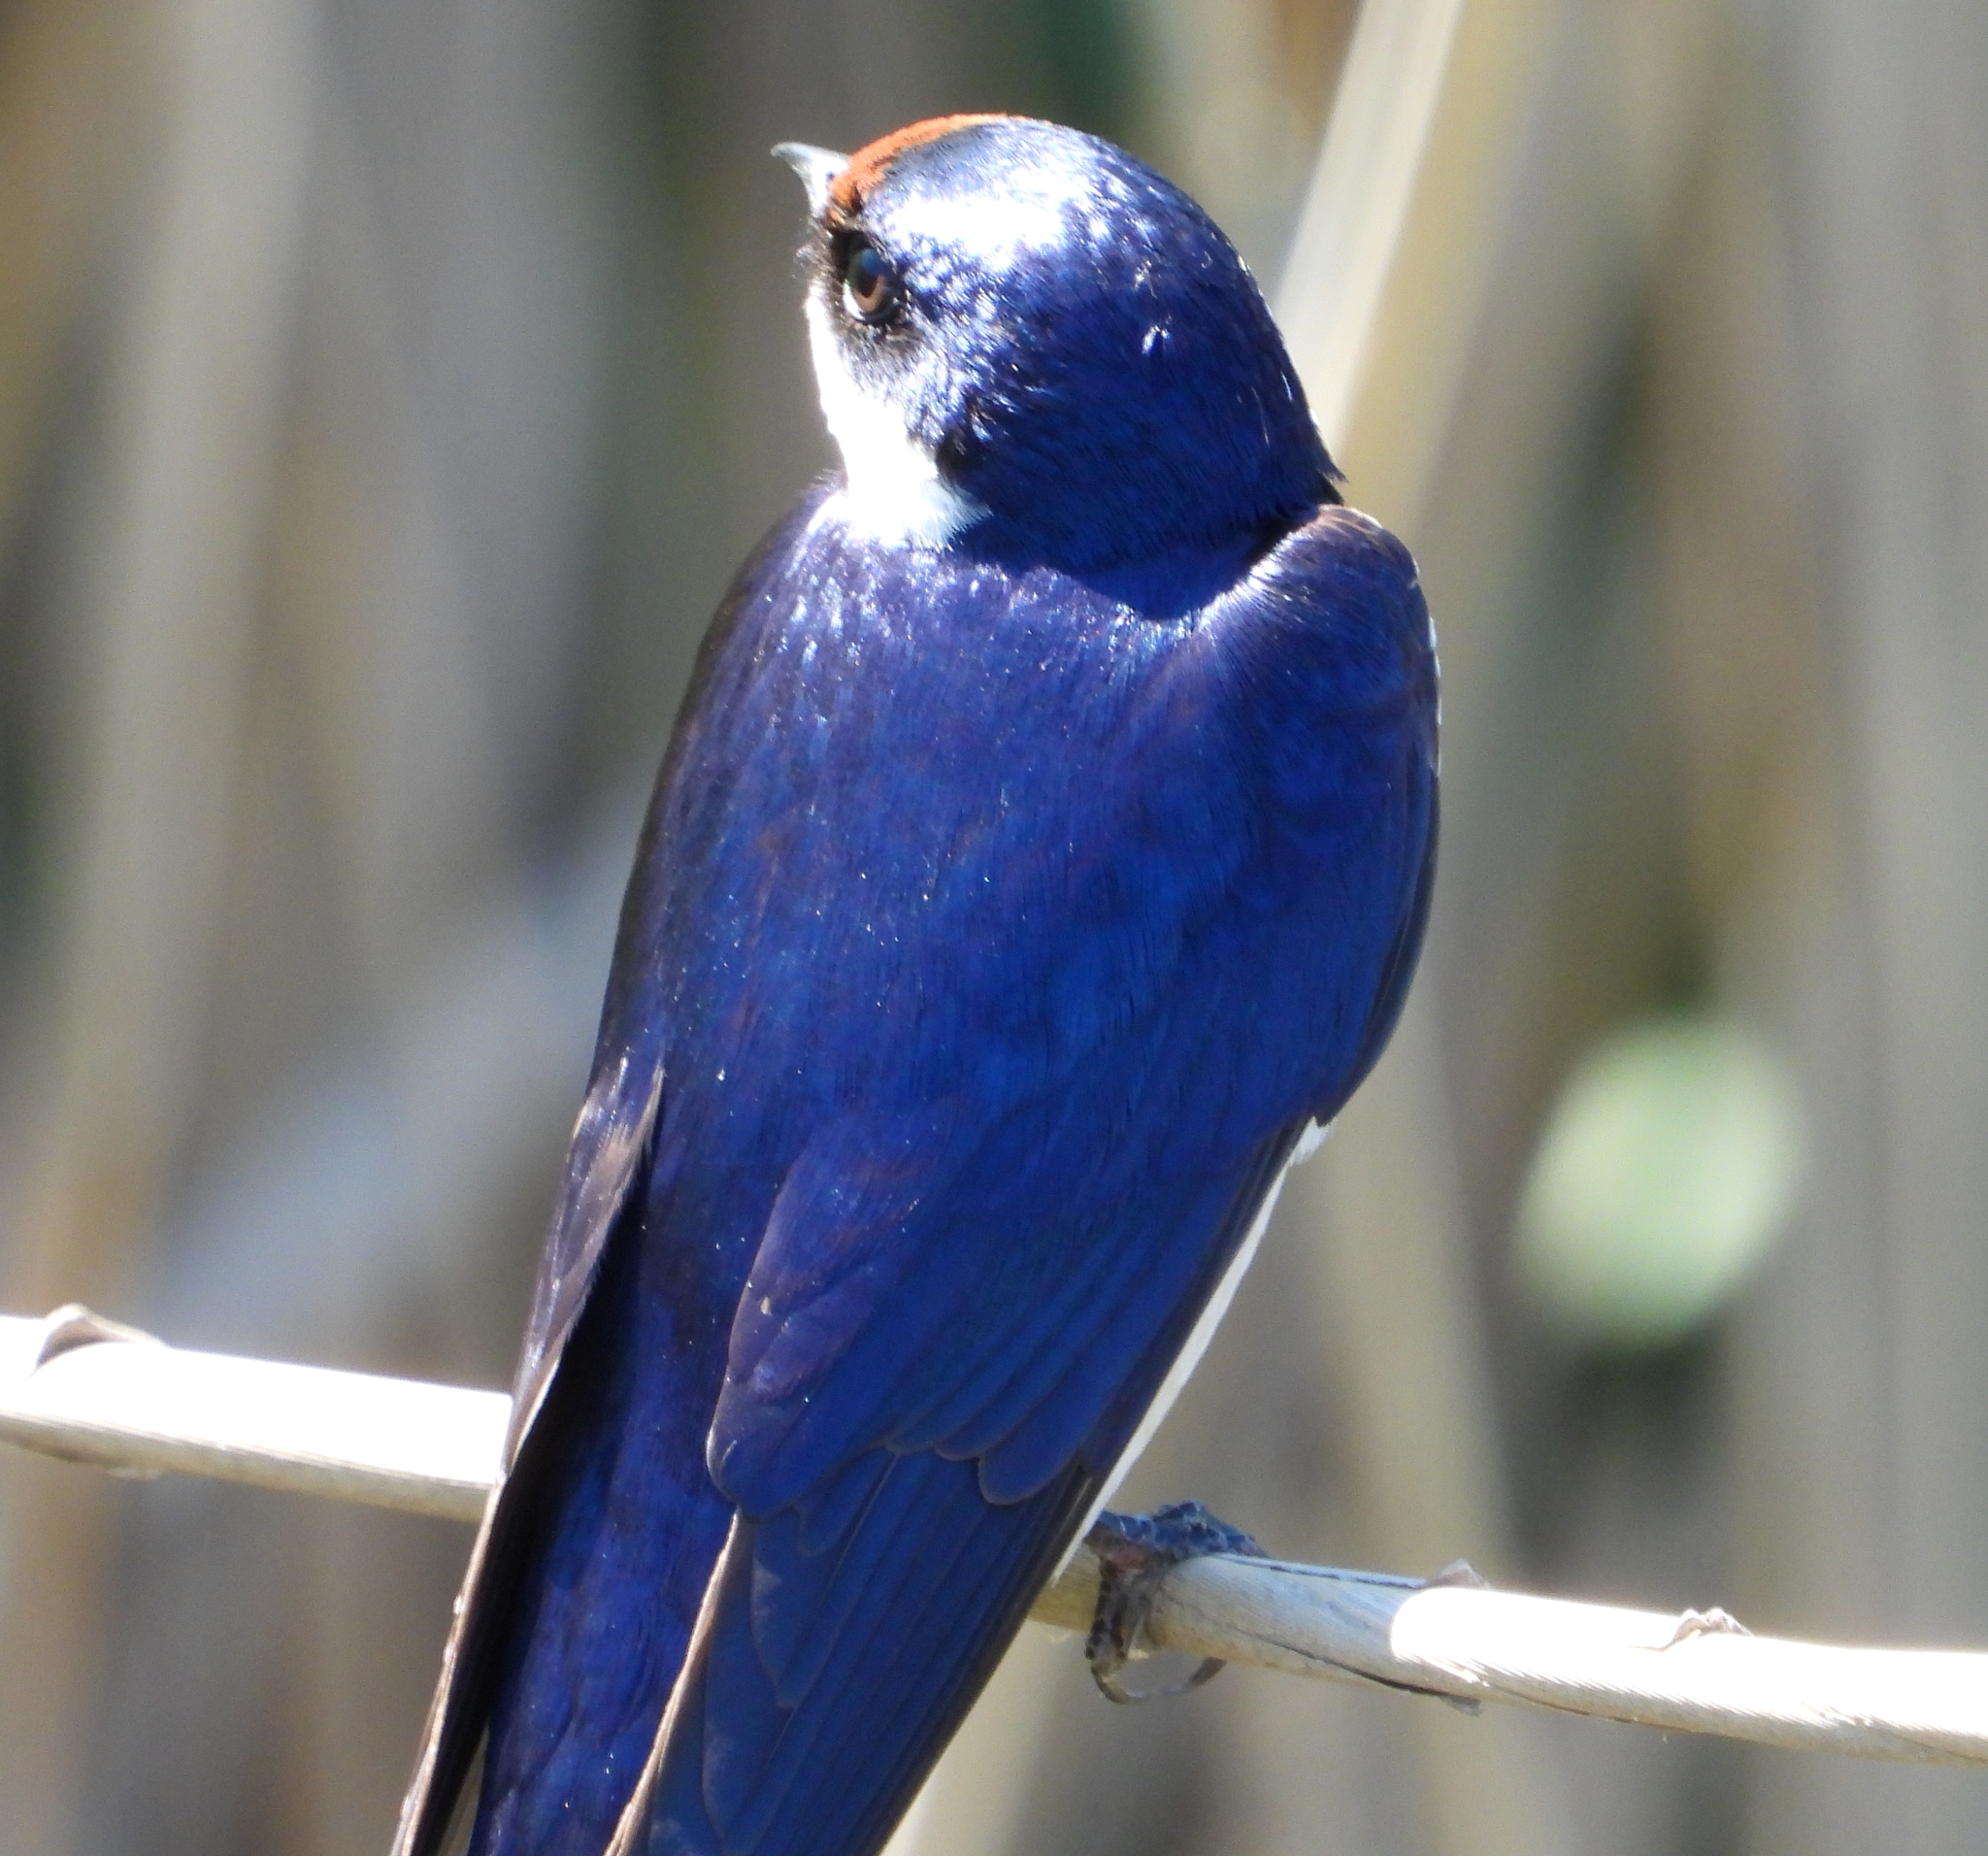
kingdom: Animalia
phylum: Chordata
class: Aves
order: Passeriformes
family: Hirundinidae
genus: Hirundo
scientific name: Hirundo albigularis
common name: White-throated swallow
